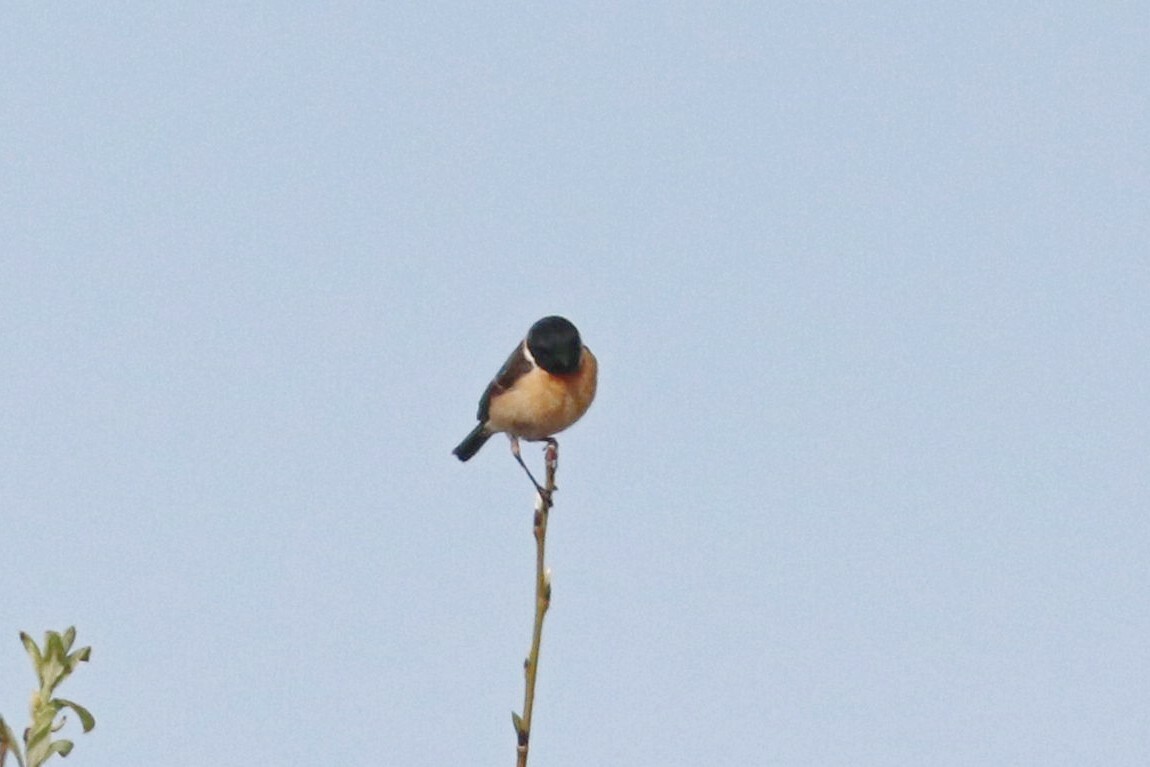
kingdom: Animalia
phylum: Chordata
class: Aves
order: Passeriformes
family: Muscicapidae
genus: Saxicola
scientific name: Saxicola maurus
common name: Siberian stonechat
